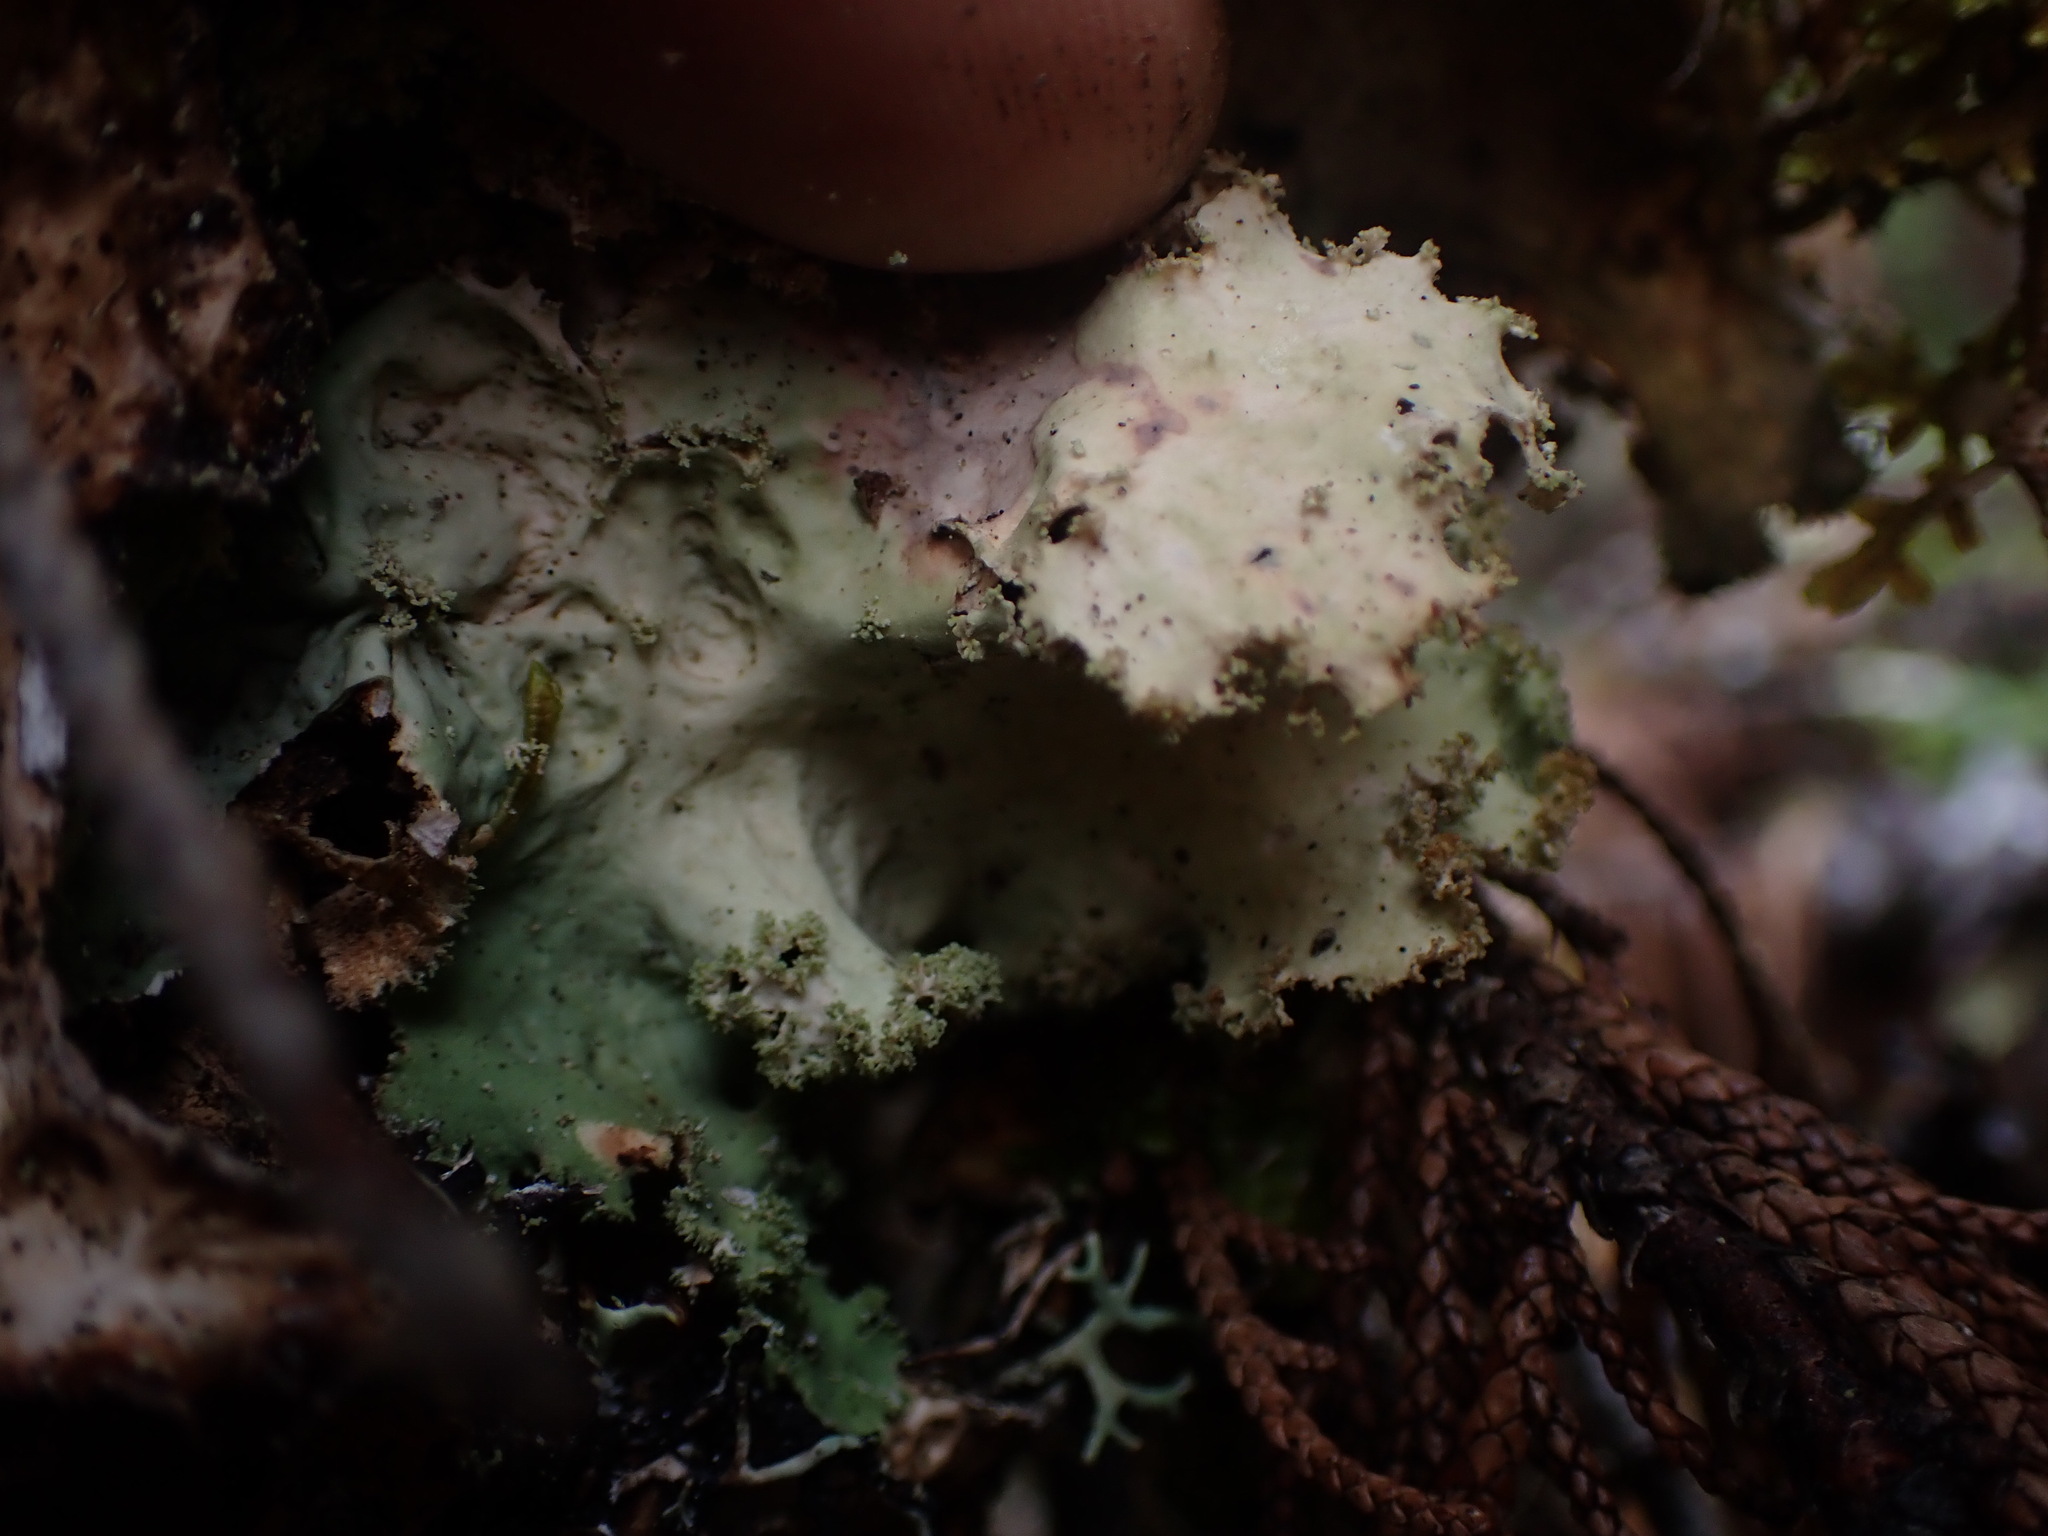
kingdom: Fungi
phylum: Ascomycota
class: Lecanoromycetes
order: Peltigerales
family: Lobariaceae
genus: Pseudocyphellaria
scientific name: Pseudocyphellaria rainierensis
